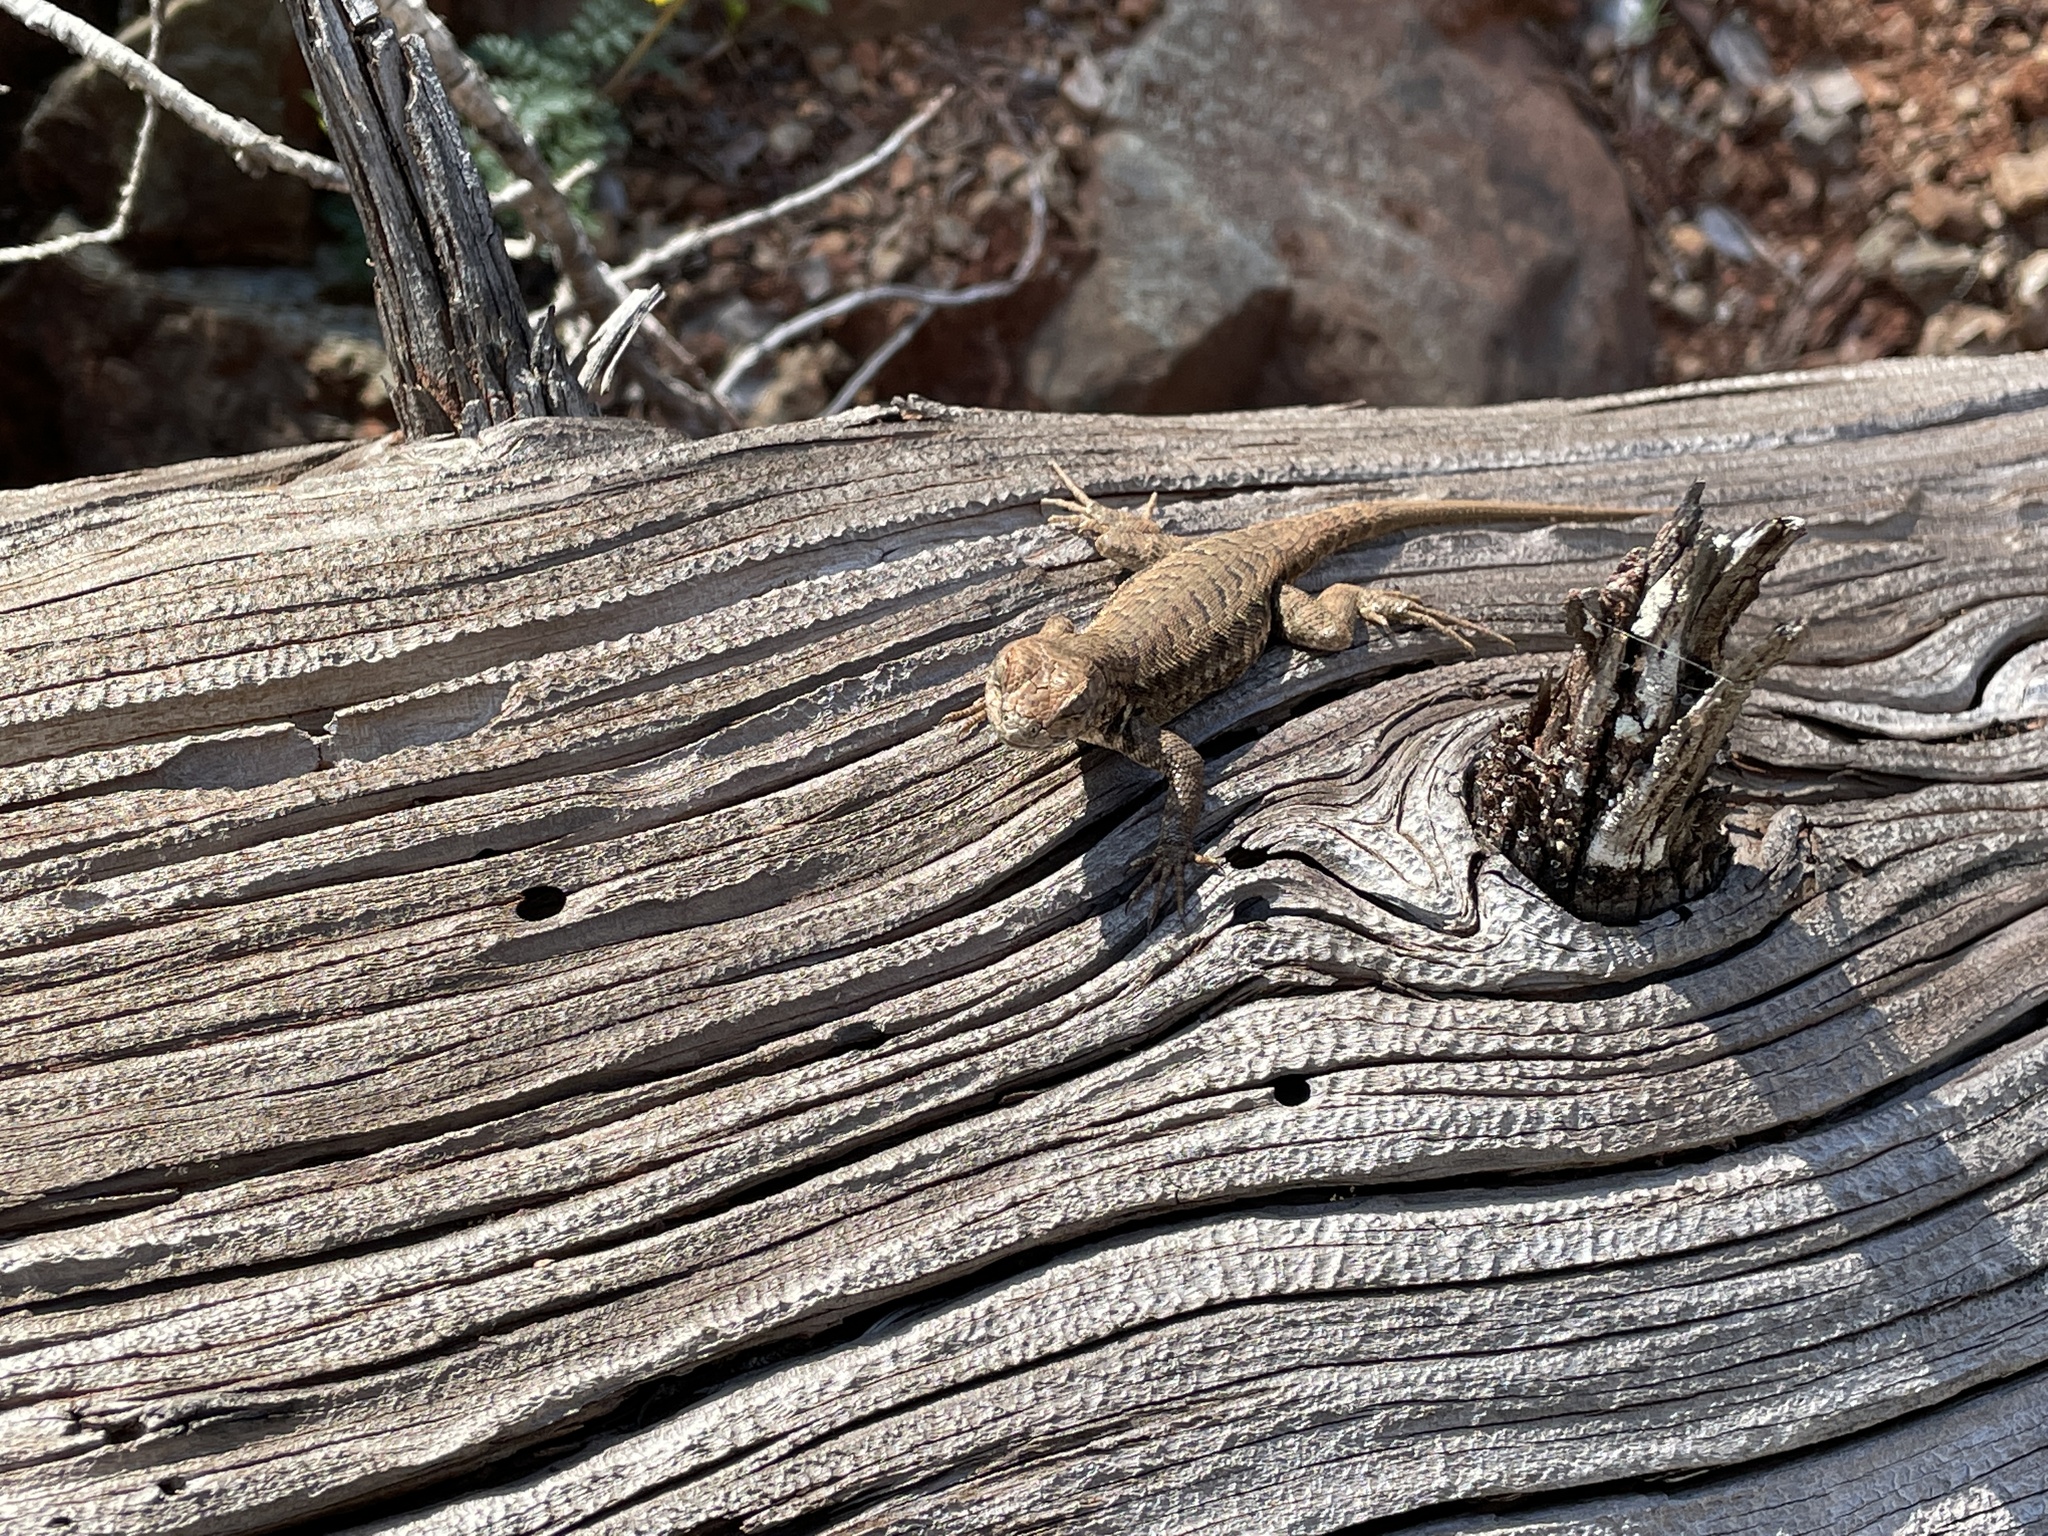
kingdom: Animalia
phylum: Chordata
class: Squamata
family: Phrynosomatidae
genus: Sceloporus
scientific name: Sceloporus graciosus
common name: Sagebrush lizard
